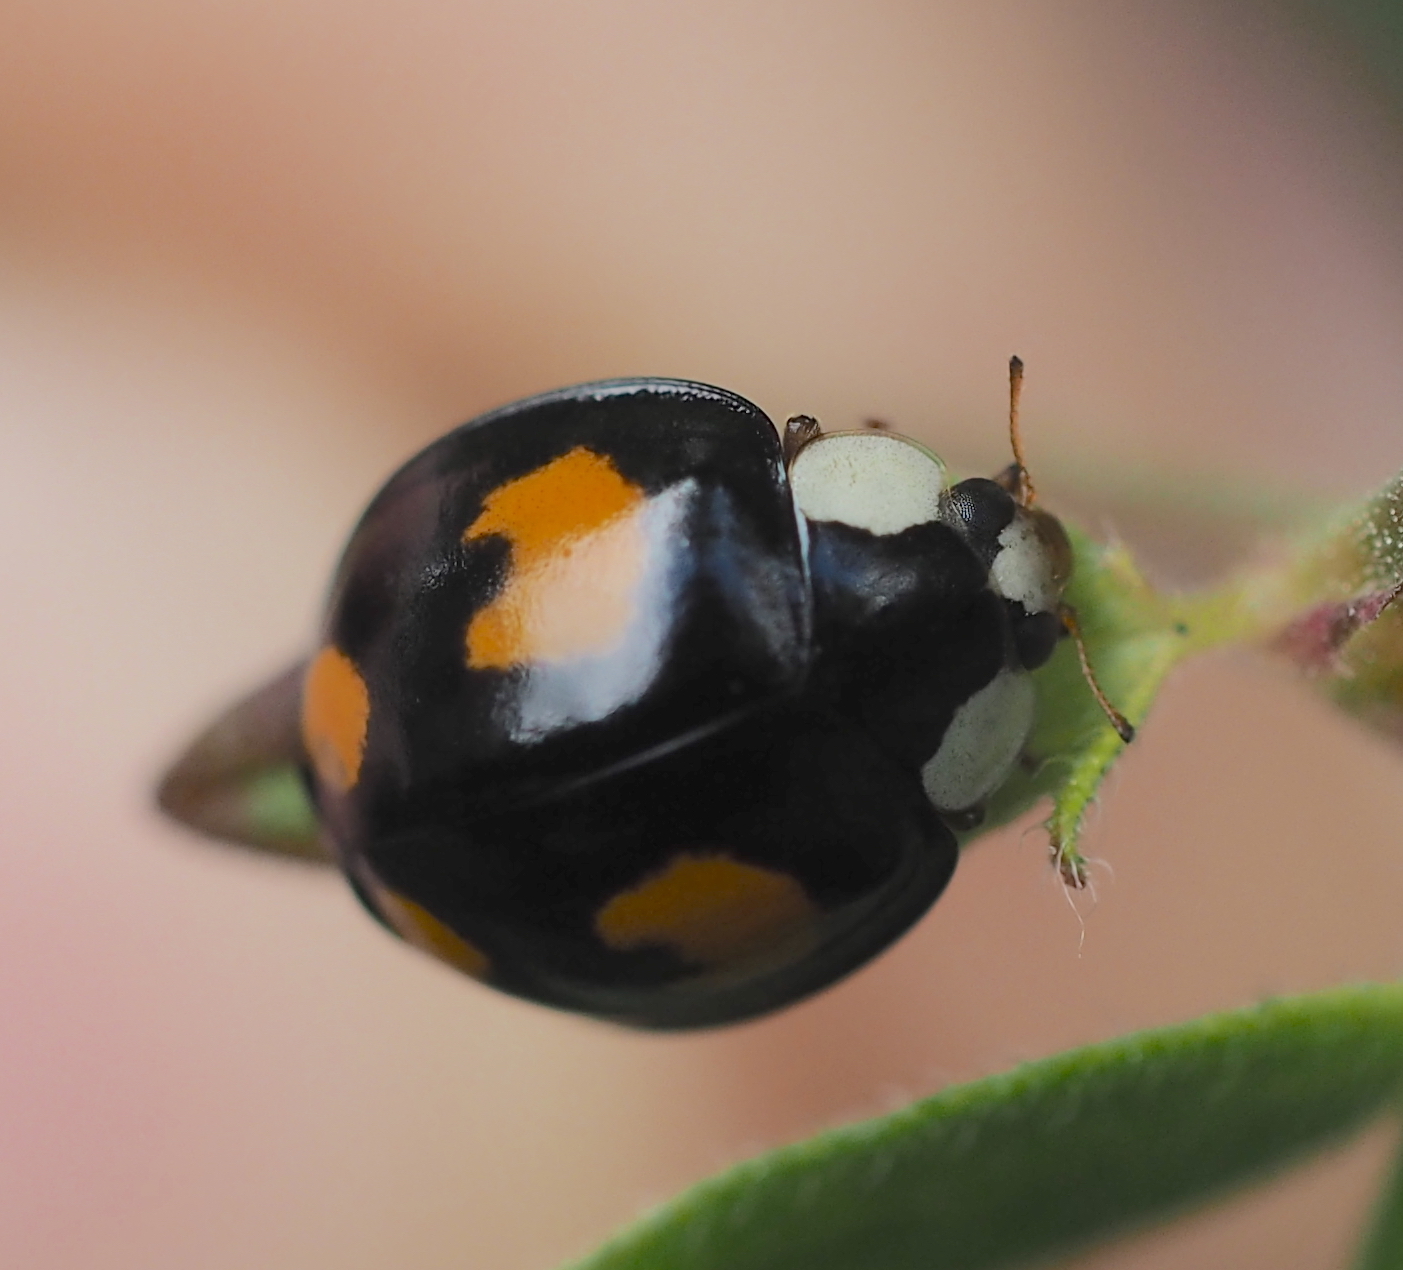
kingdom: Animalia
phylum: Arthropoda
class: Insecta
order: Coleoptera
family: Coccinellidae
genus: Harmonia
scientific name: Harmonia axyridis
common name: Harlequin ladybird
